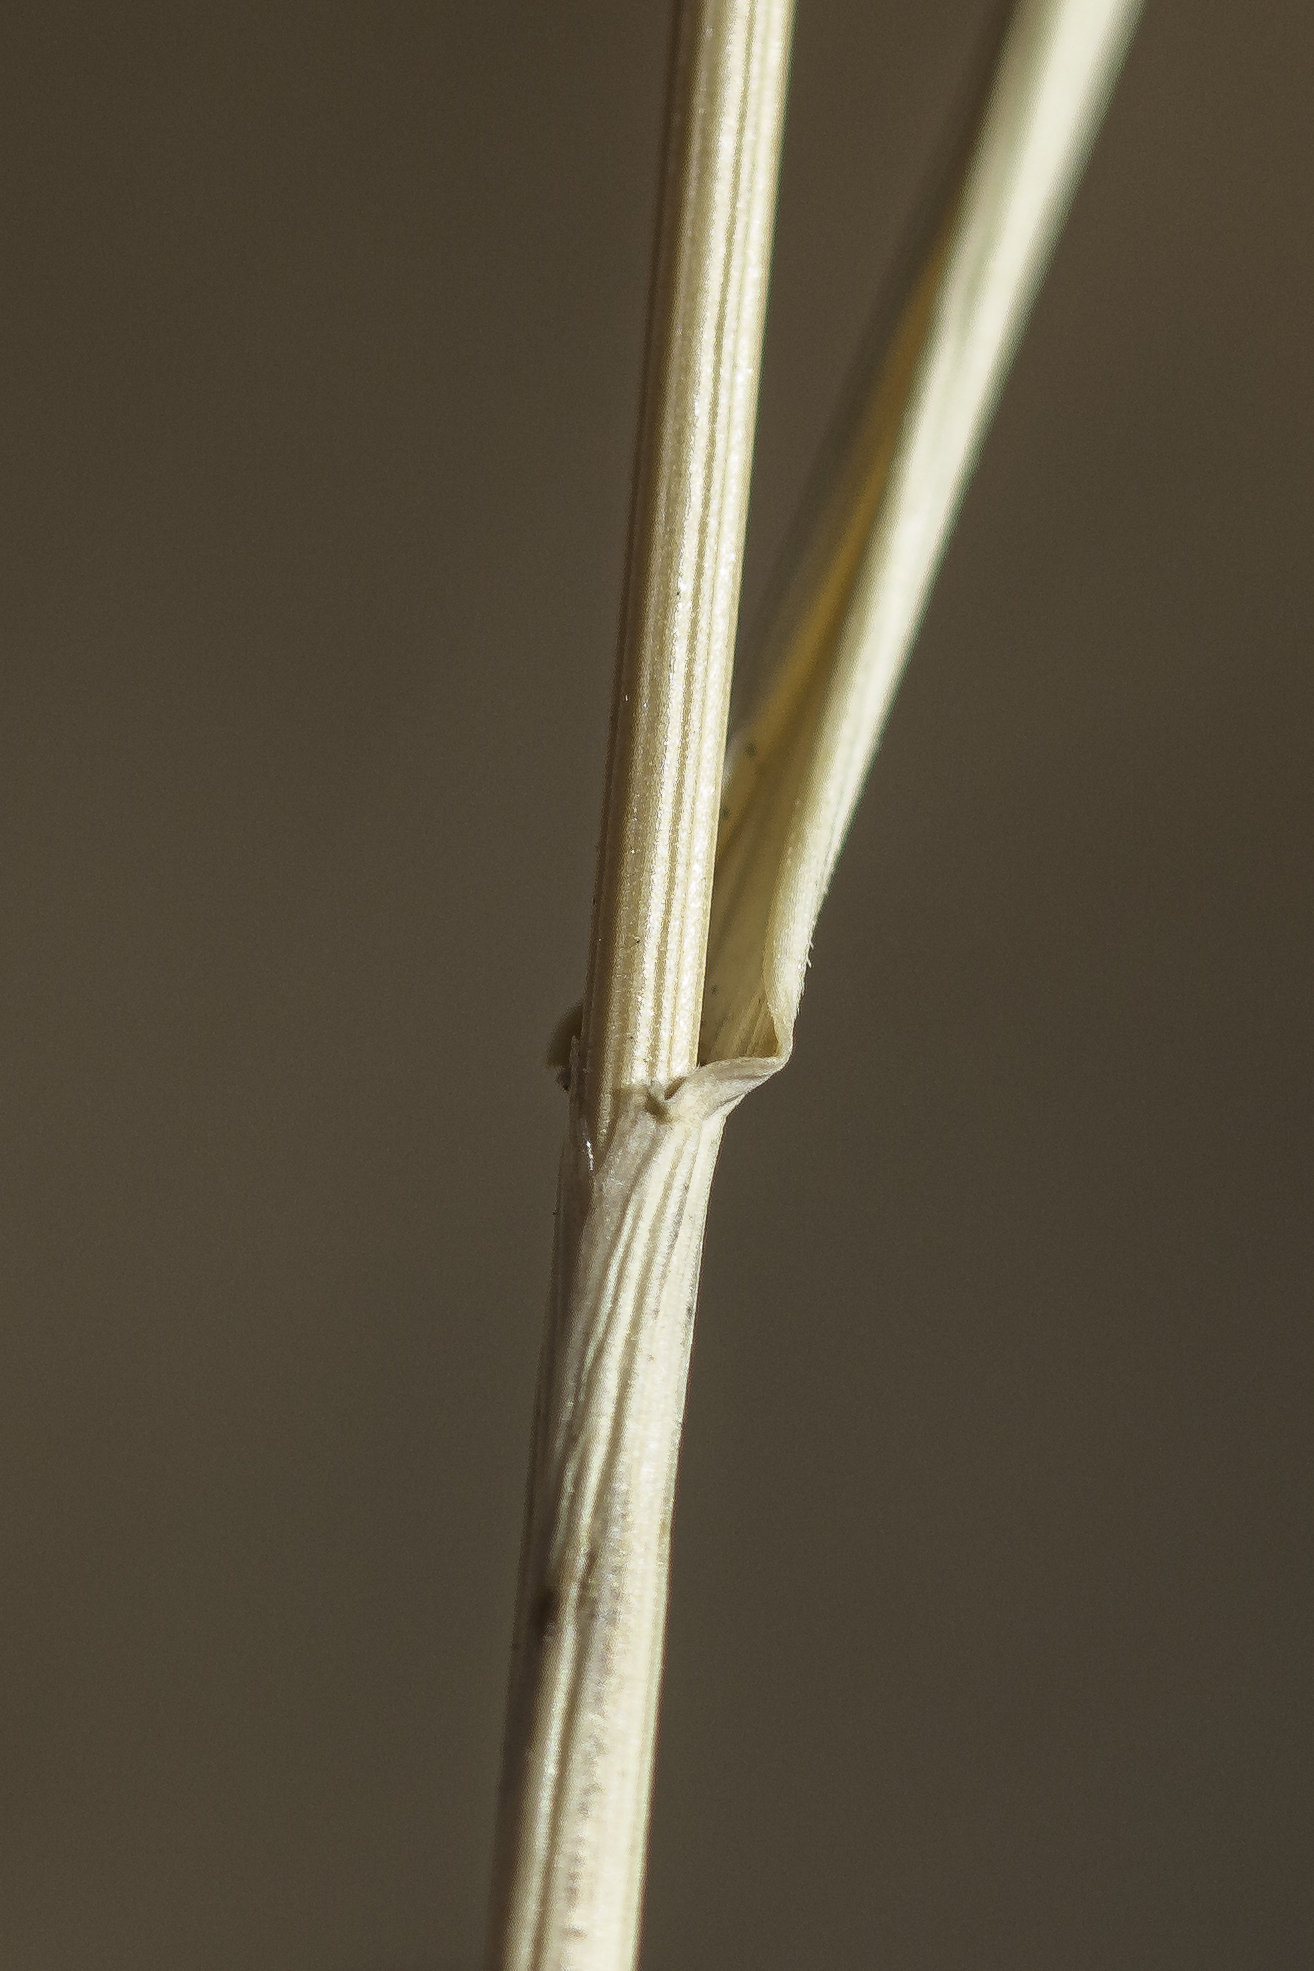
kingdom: Plantae
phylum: Tracheophyta
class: Liliopsida
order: Poales
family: Poaceae
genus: Agropyron
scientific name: Agropyron cristatum
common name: Crested wheatgrass
